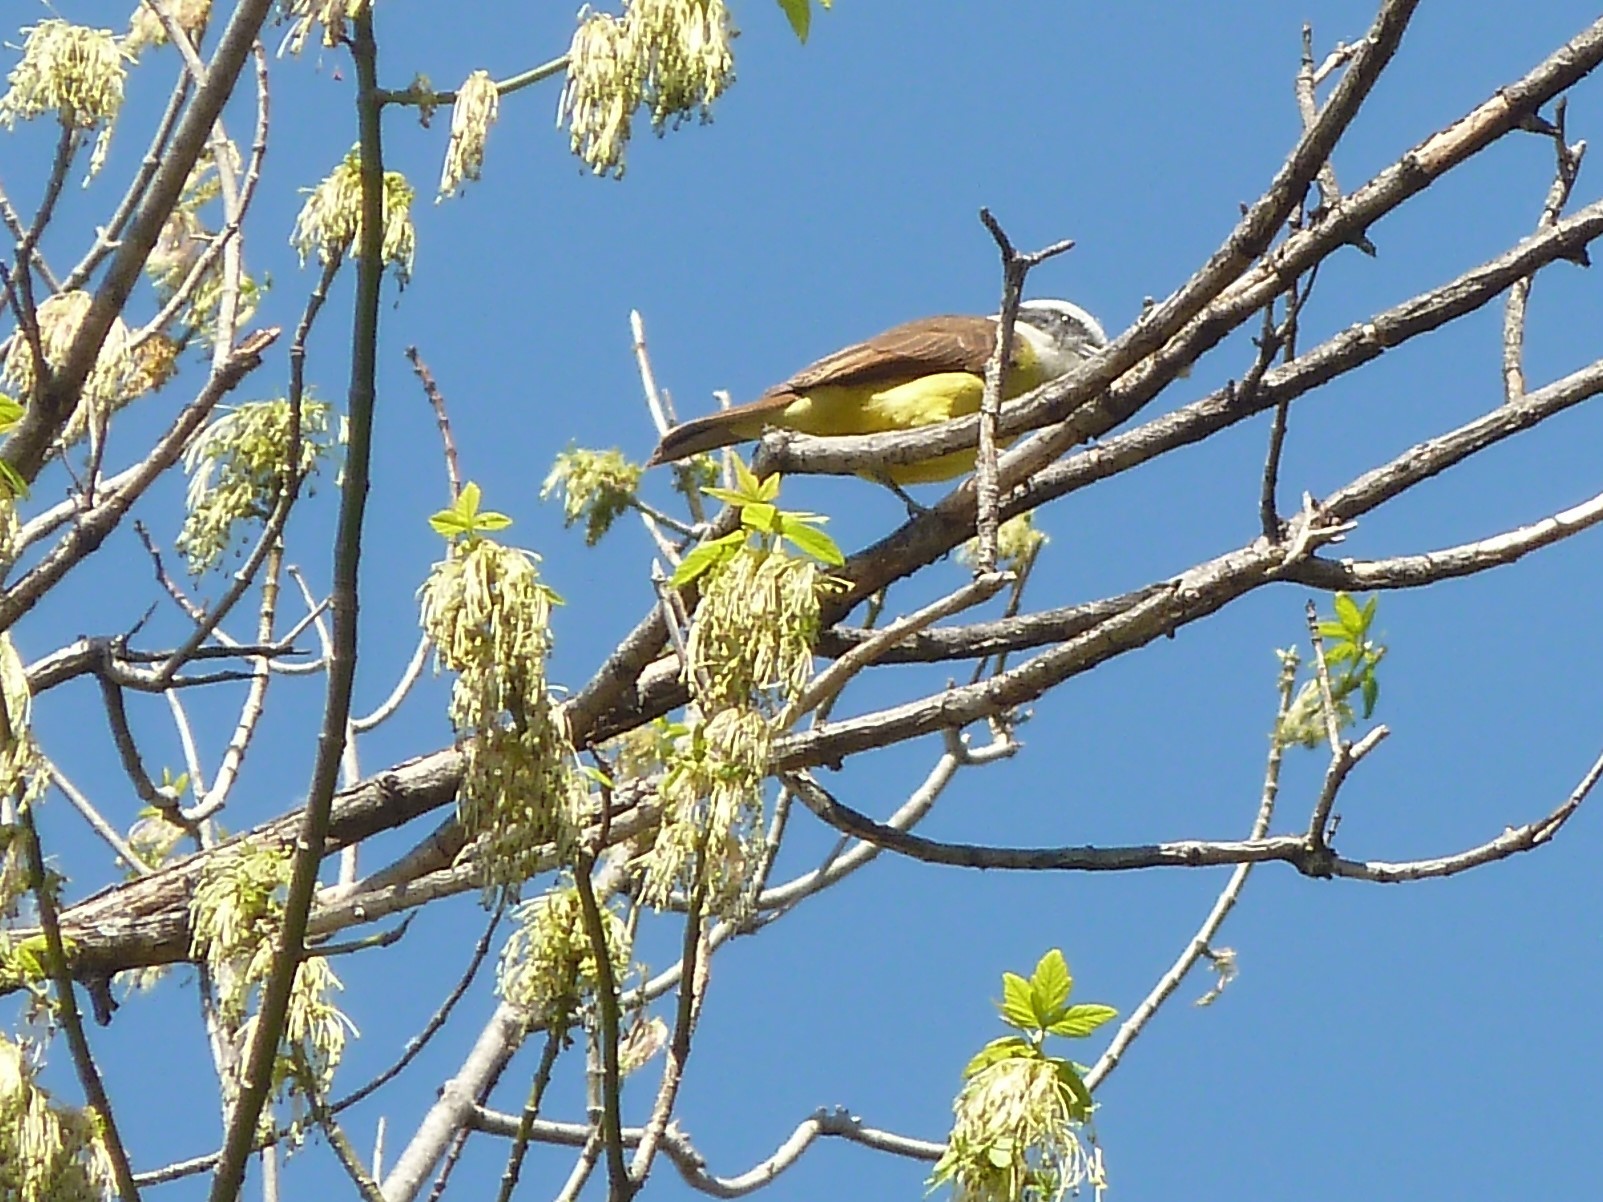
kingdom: Animalia
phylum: Chordata
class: Aves
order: Passeriformes
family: Tyrannidae
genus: Pitangus
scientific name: Pitangus sulphuratus
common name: Great kiskadee
